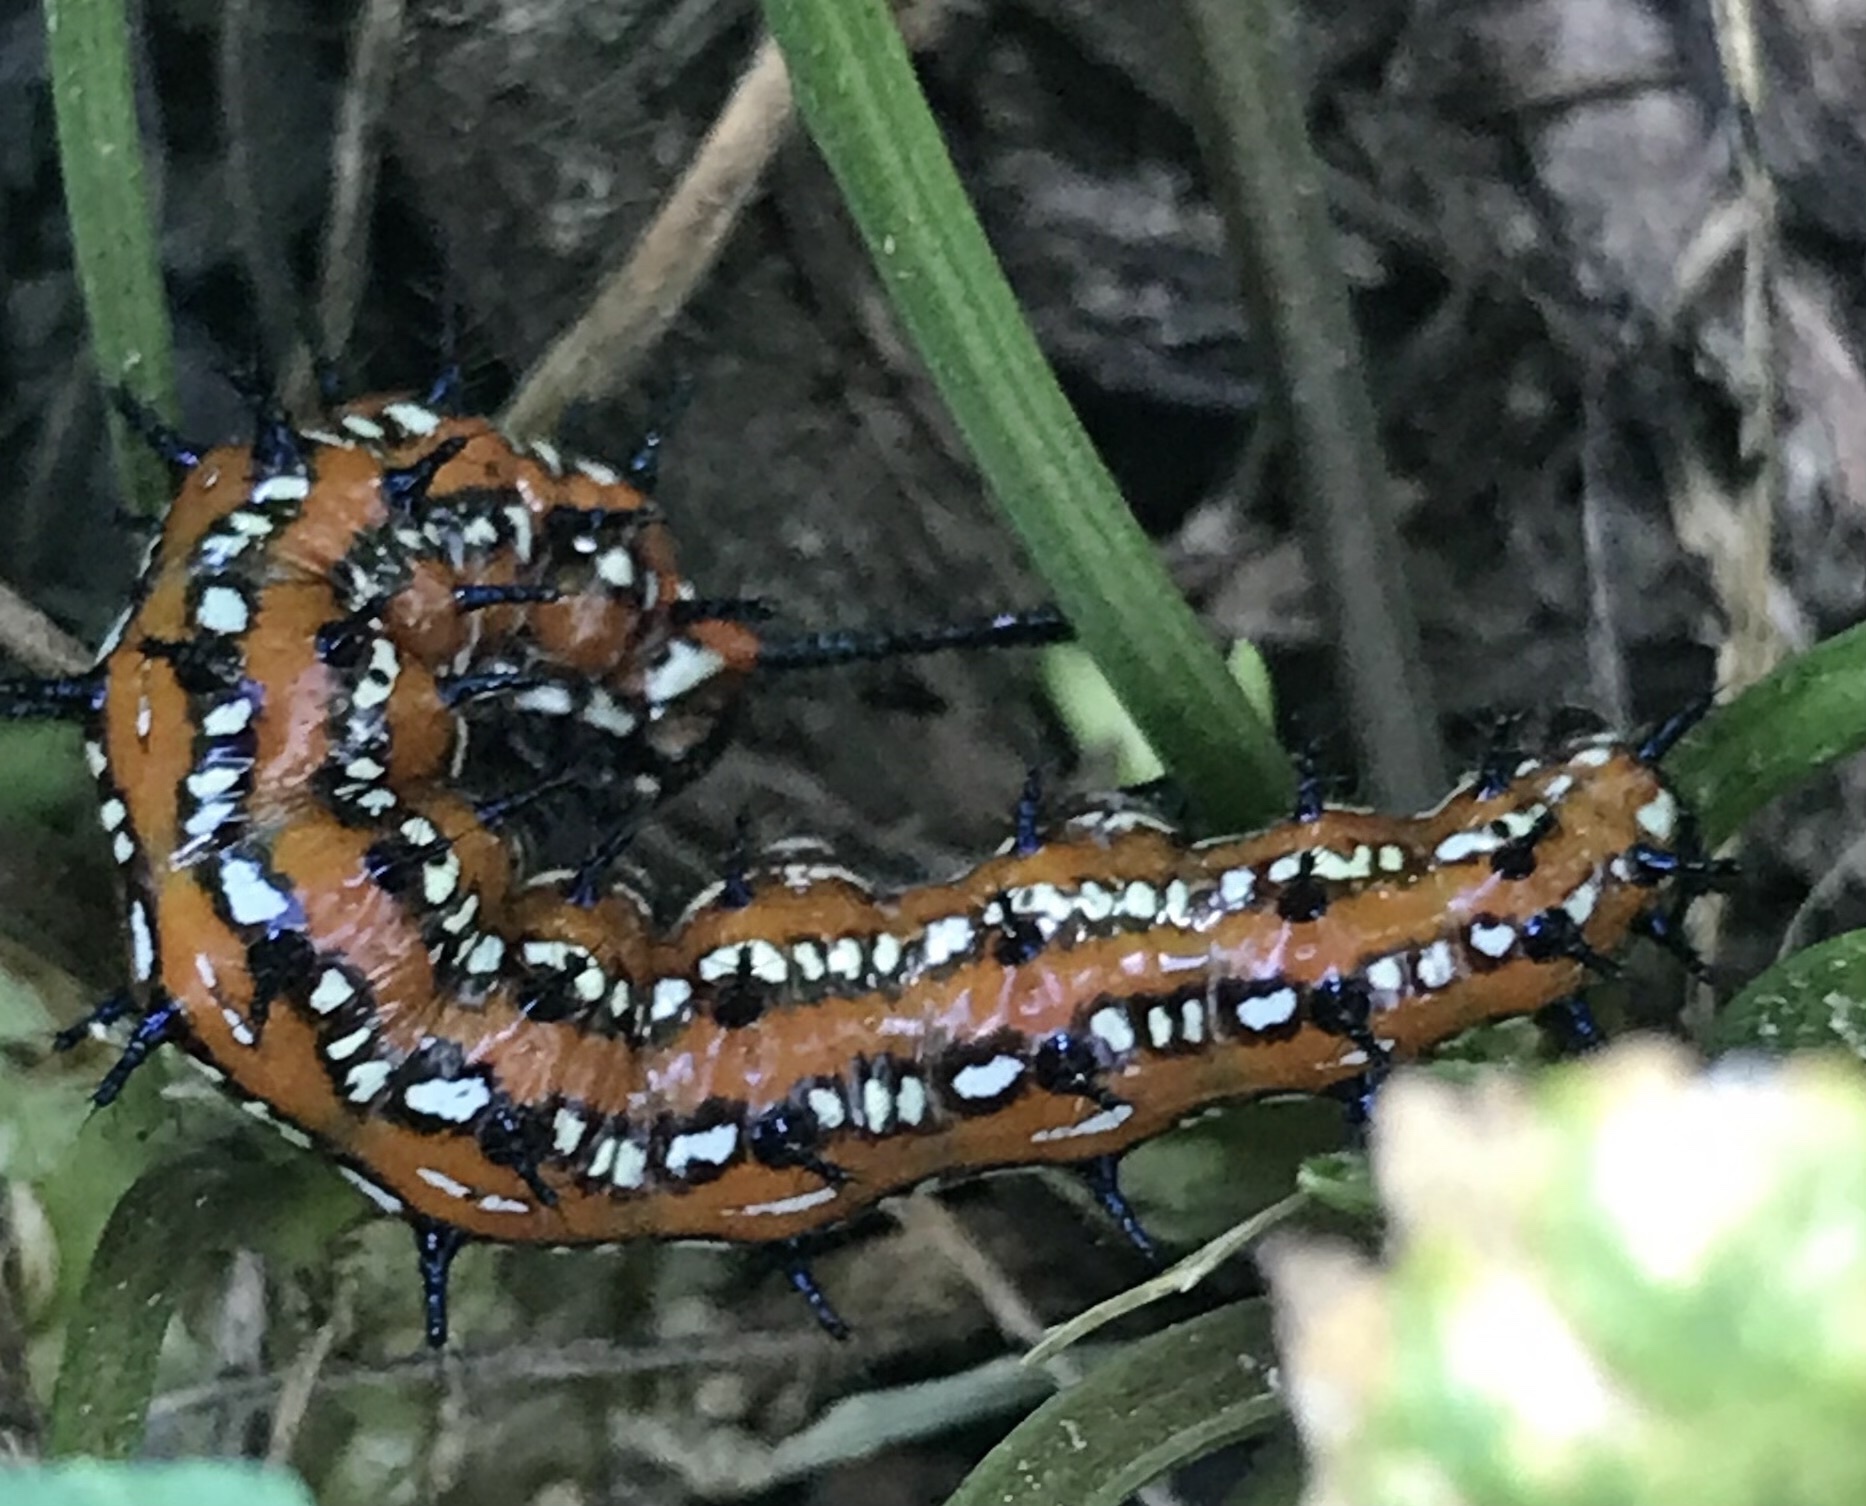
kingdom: Animalia
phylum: Arthropoda
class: Insecta
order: Lepidoptera
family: Nymphalidae
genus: Euptoieta
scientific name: Euptoieta claudia
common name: Variegated fritillary
